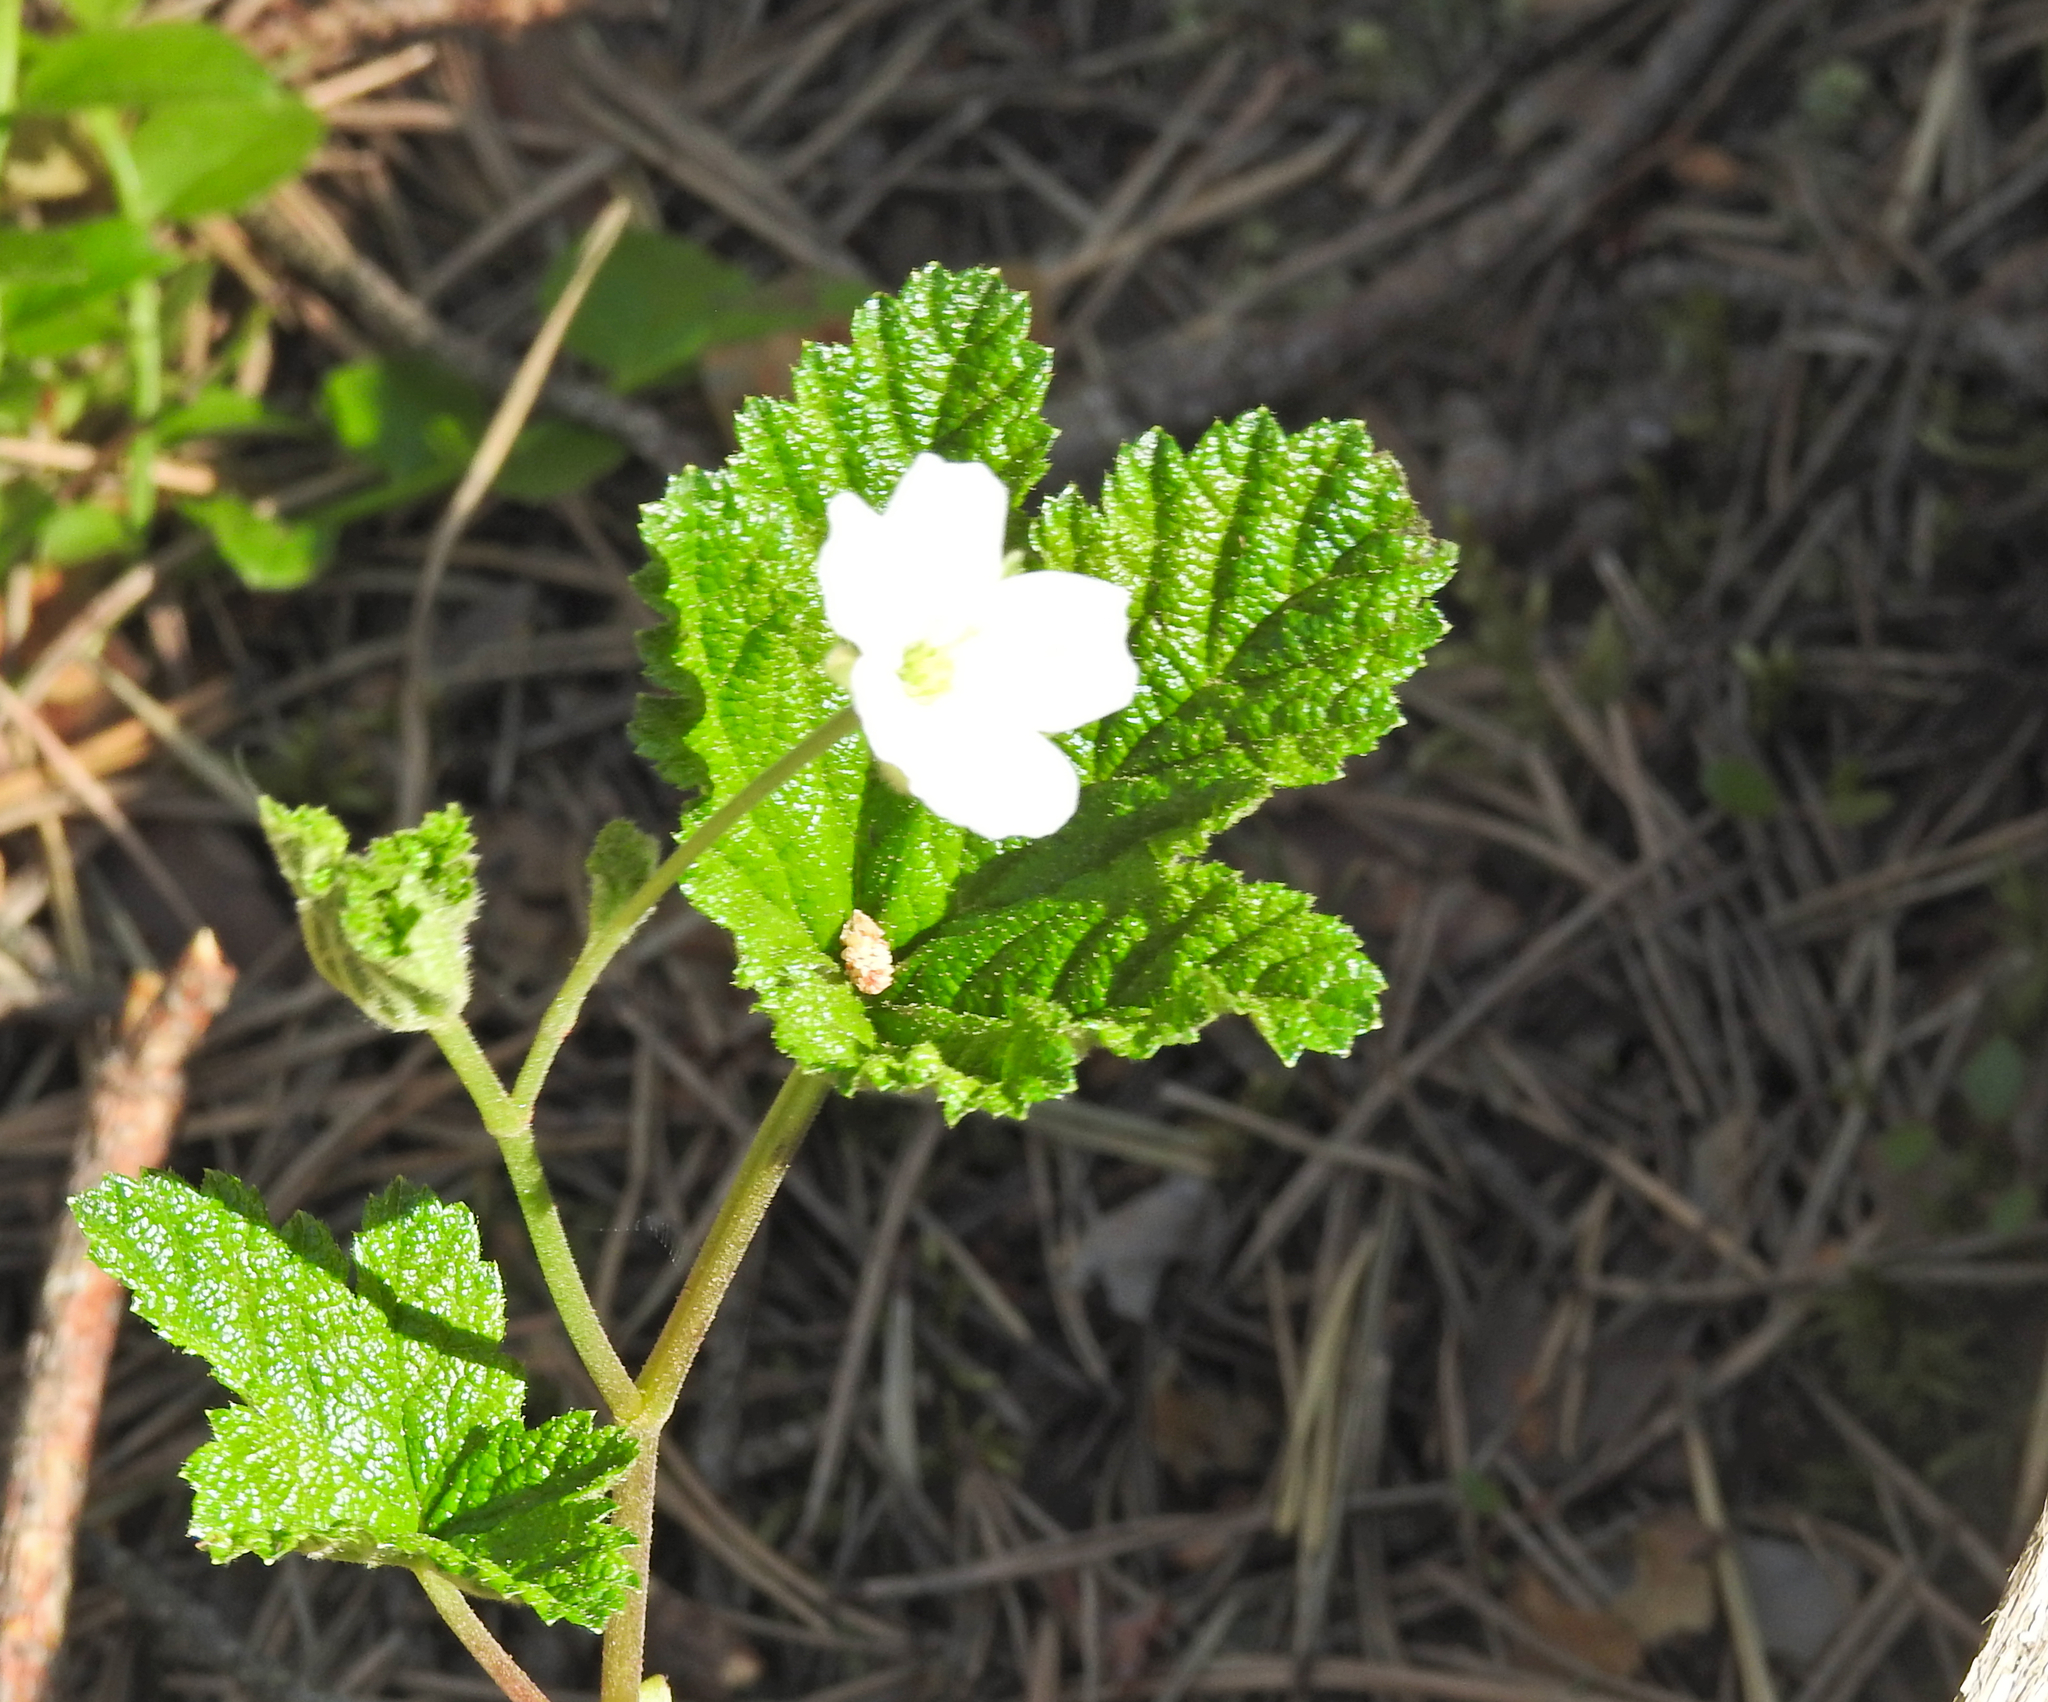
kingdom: Plantae
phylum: Tracheophyta
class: Magnoliopsida
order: Rosales
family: Rosaceae
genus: Rubus
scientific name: Rubus chamaemorus
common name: Cloudberry
